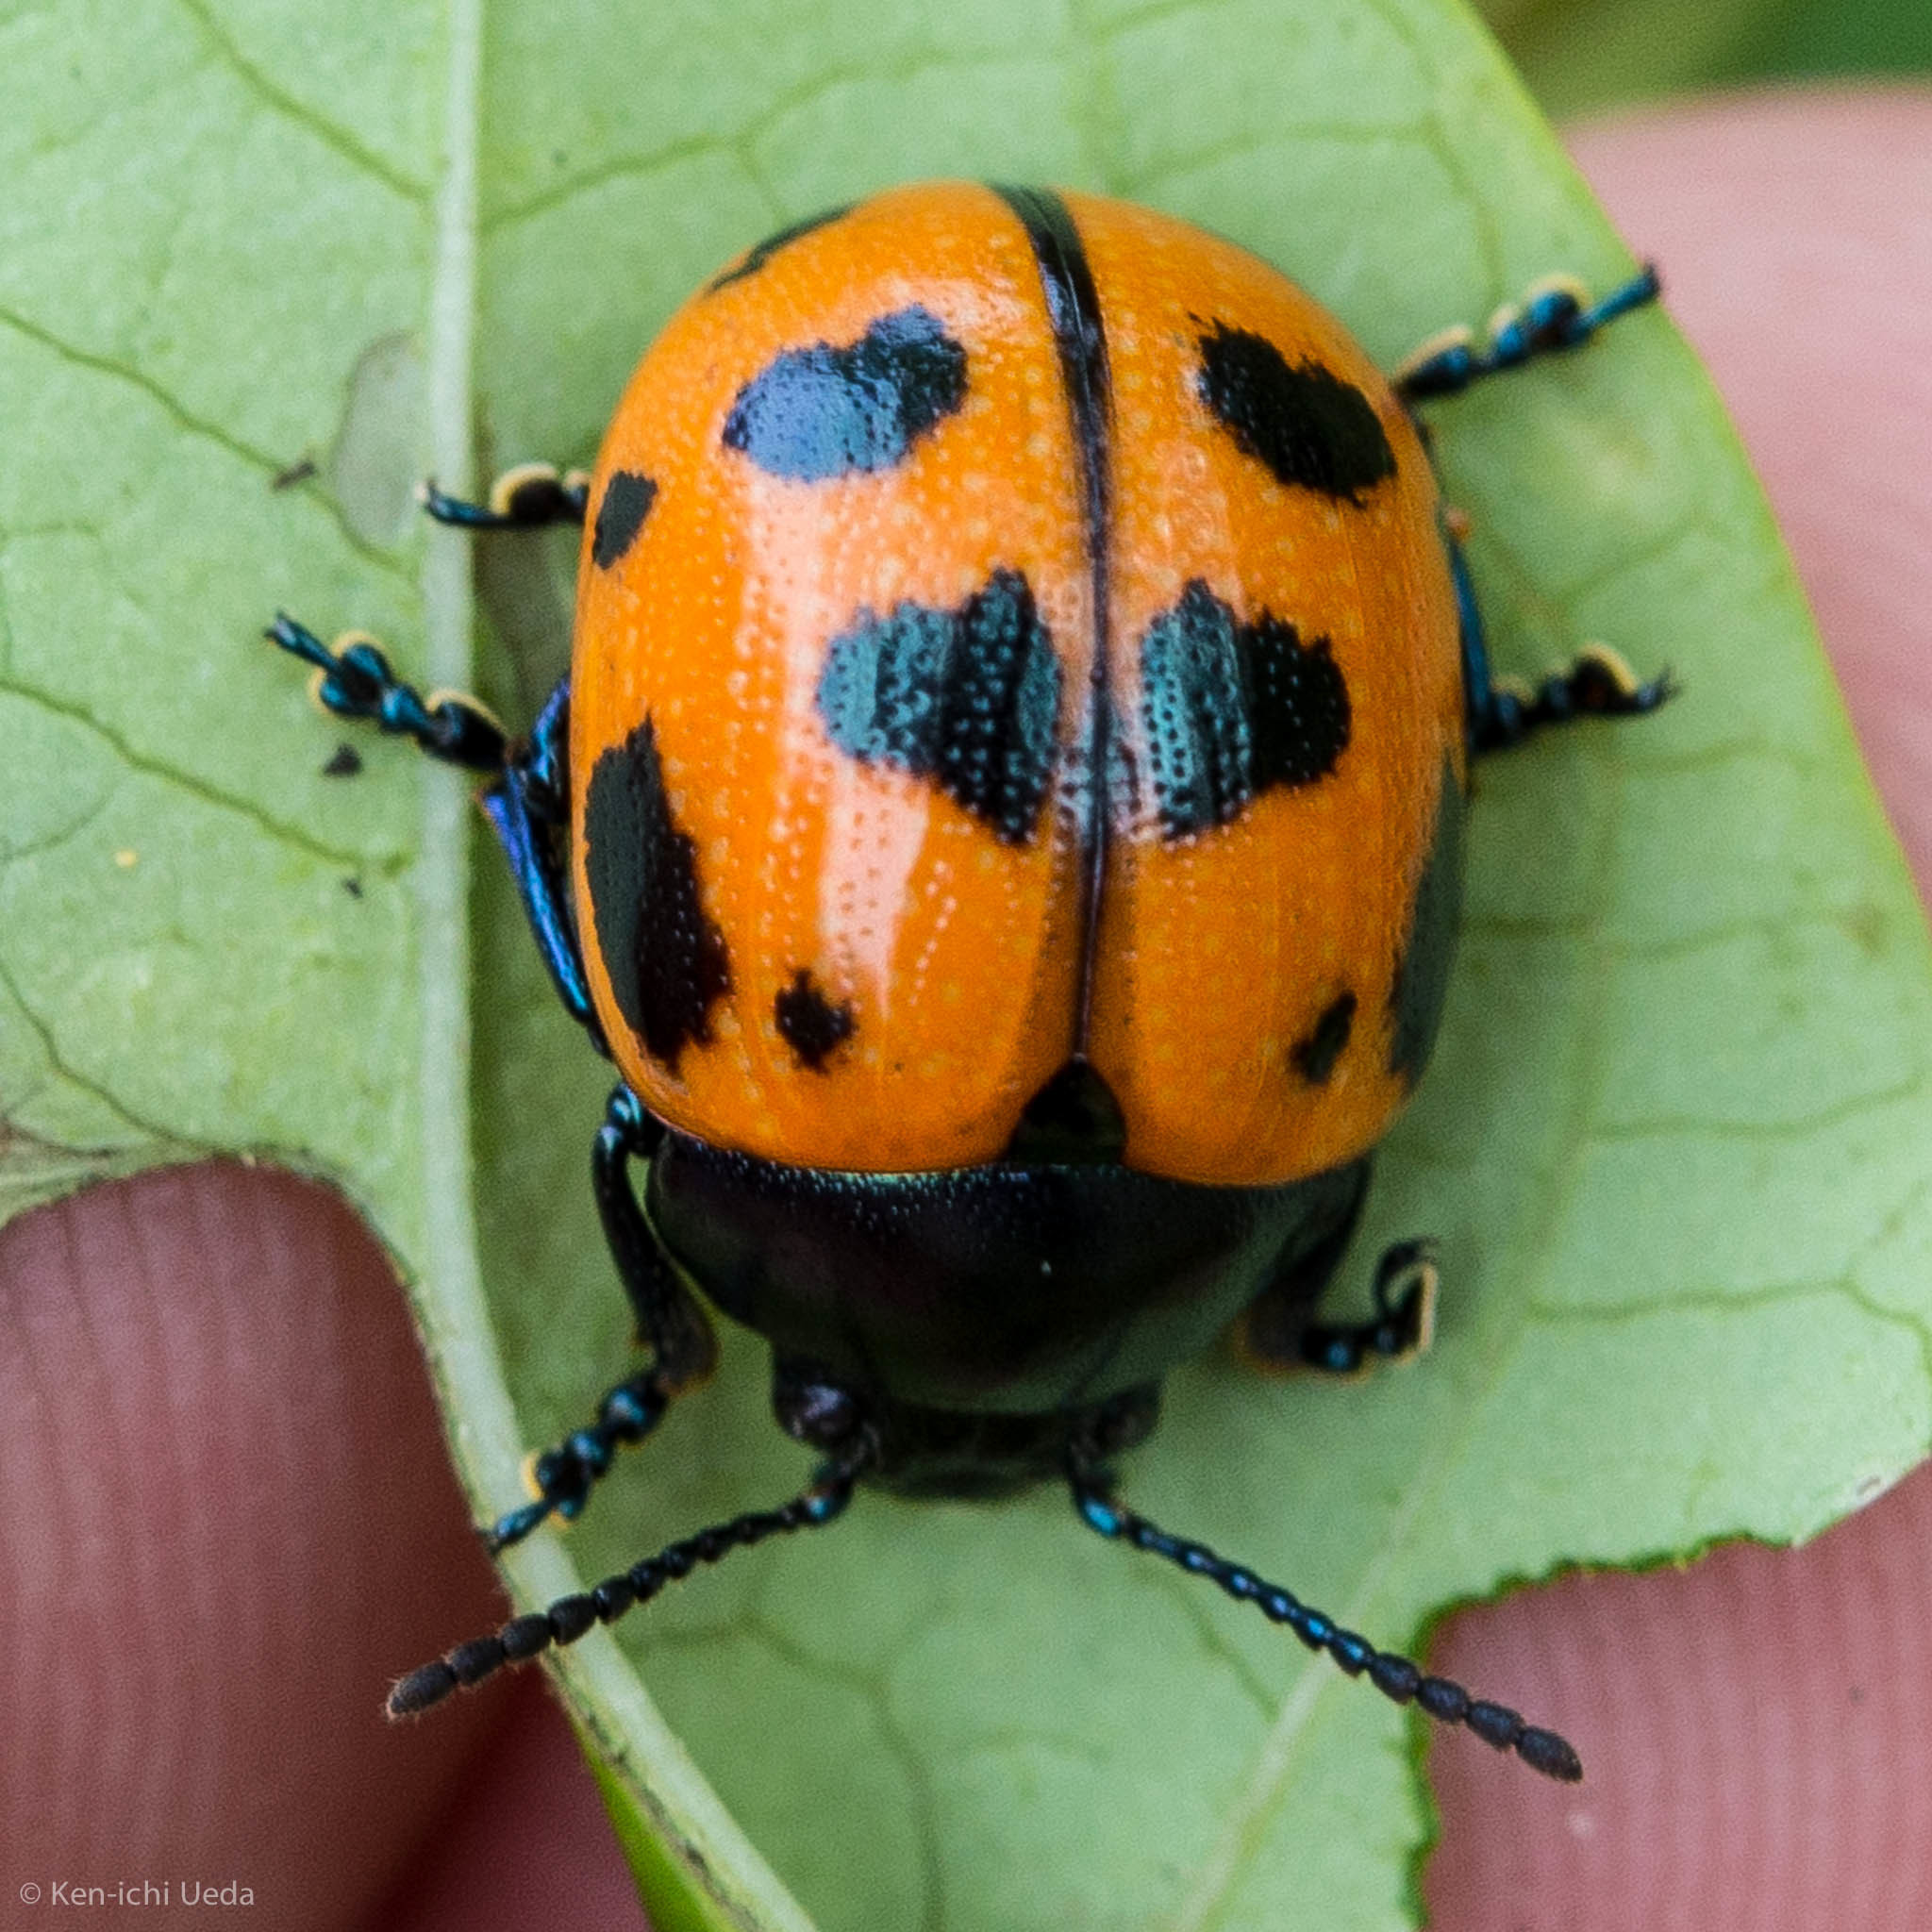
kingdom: Animalia
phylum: Arthropoda
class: Insecta
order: Coleoptera
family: Chrysomelidae
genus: Labidomera
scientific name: Labidomera clivicollis
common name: Swamp milkweed leaf beetle
